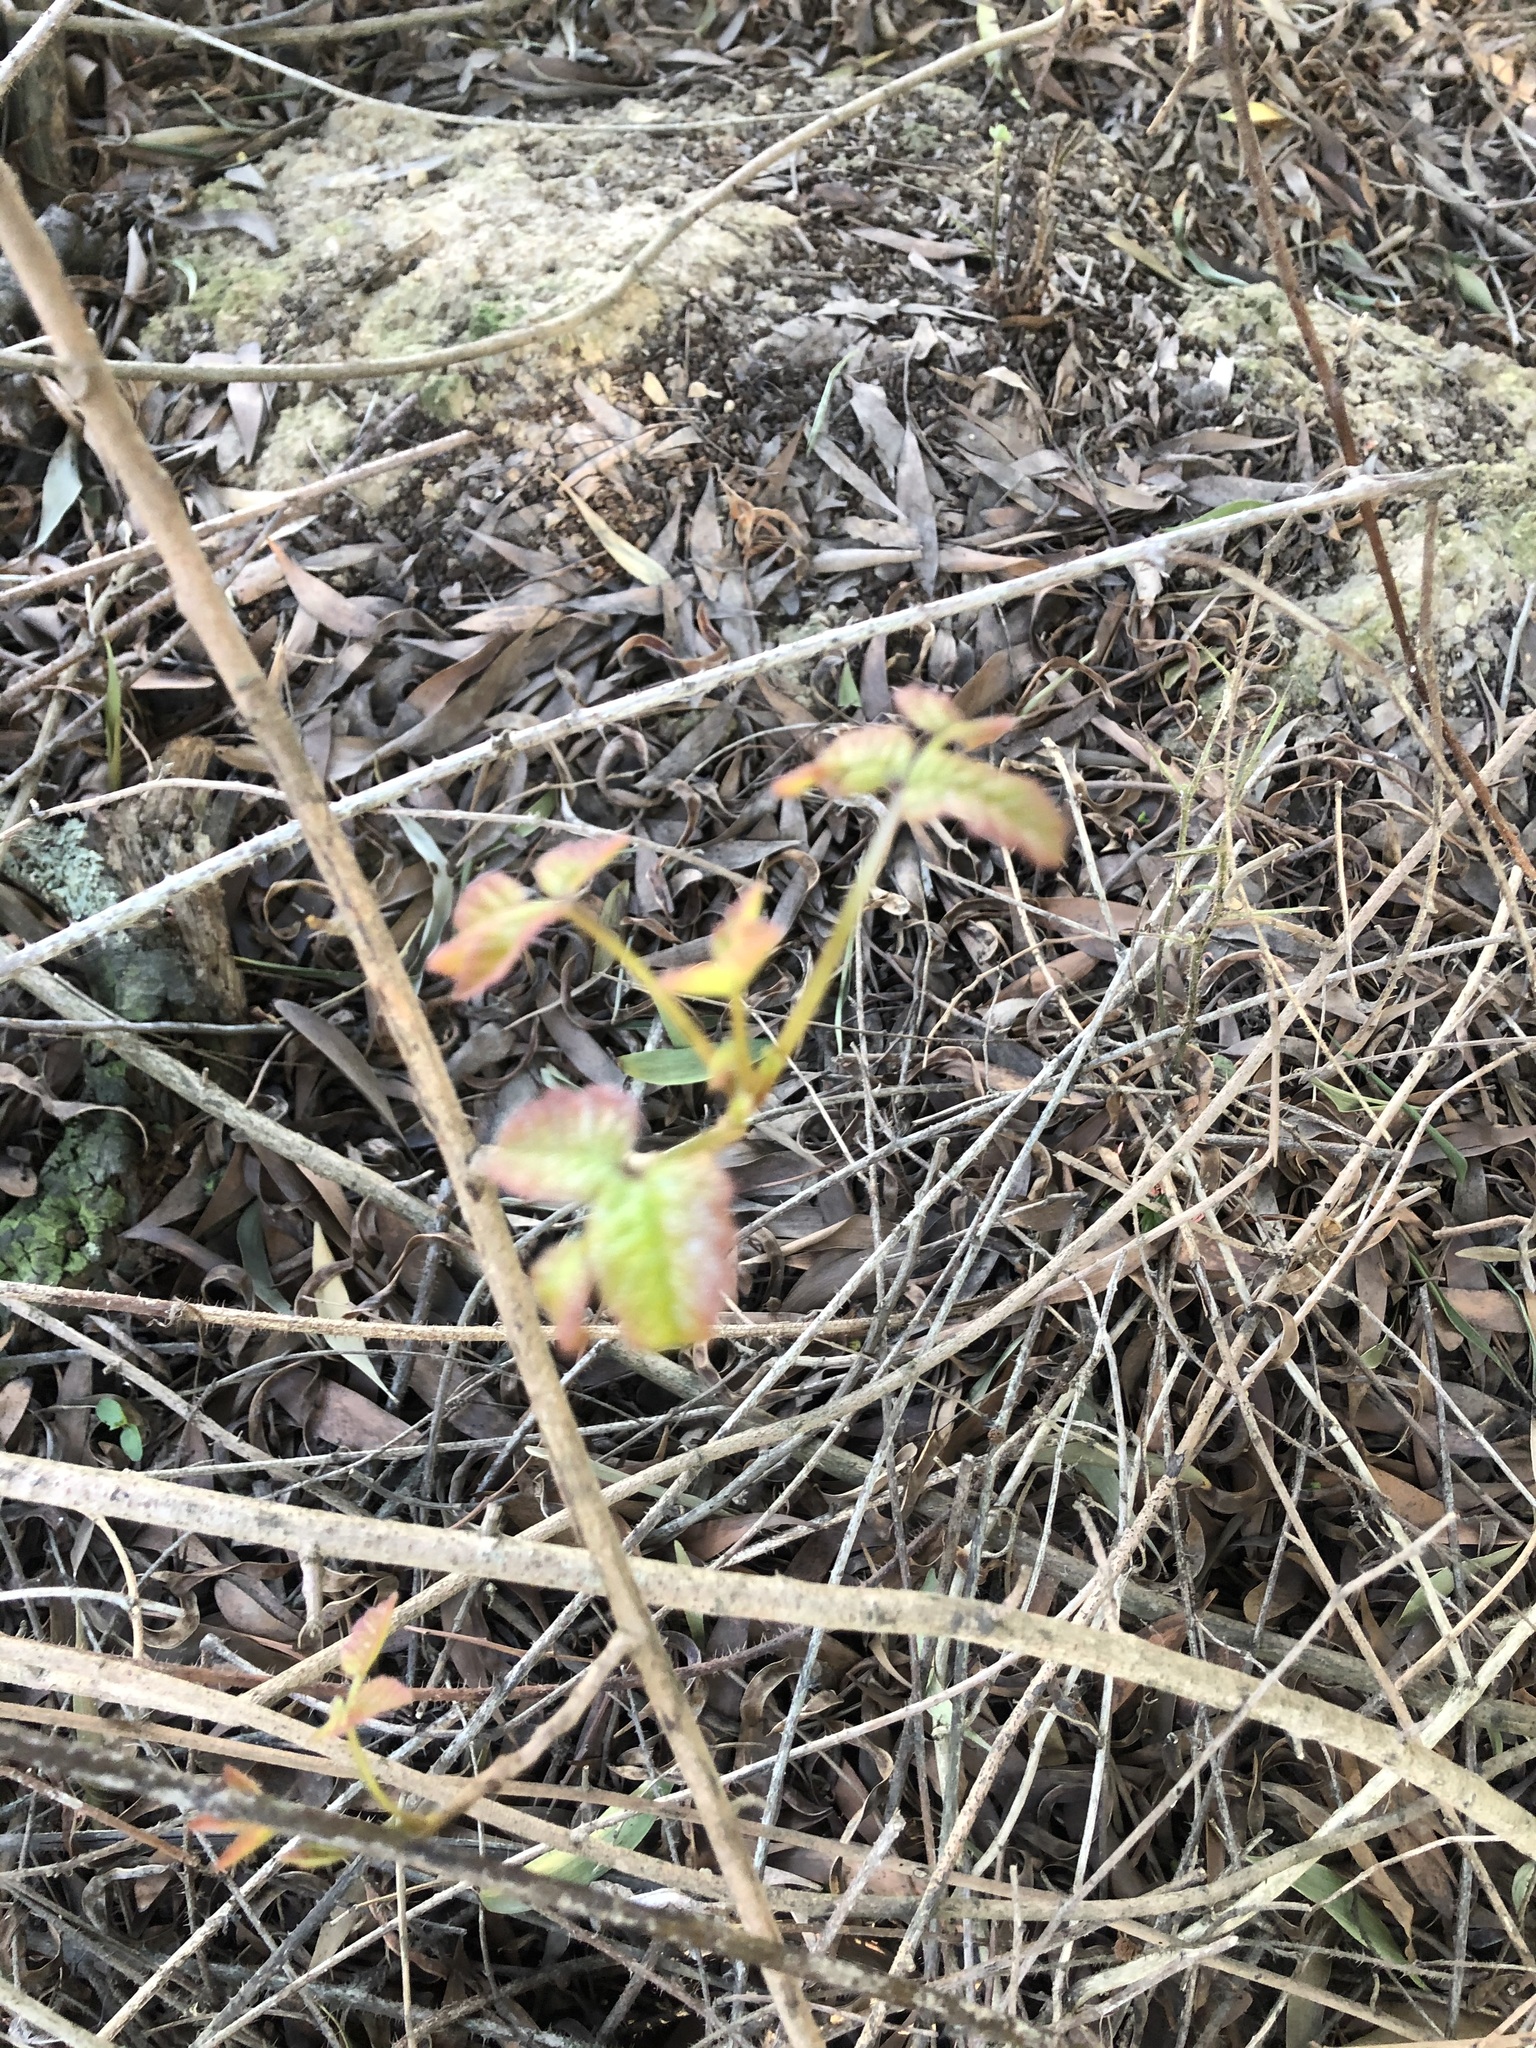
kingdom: Plantae
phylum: Tracheophyta
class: Magnoliopsida
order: Sapindales
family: Anacardiaceae
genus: Toxicodendron
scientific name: Toxicodendron diversilobum
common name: Pacific poison-oak
